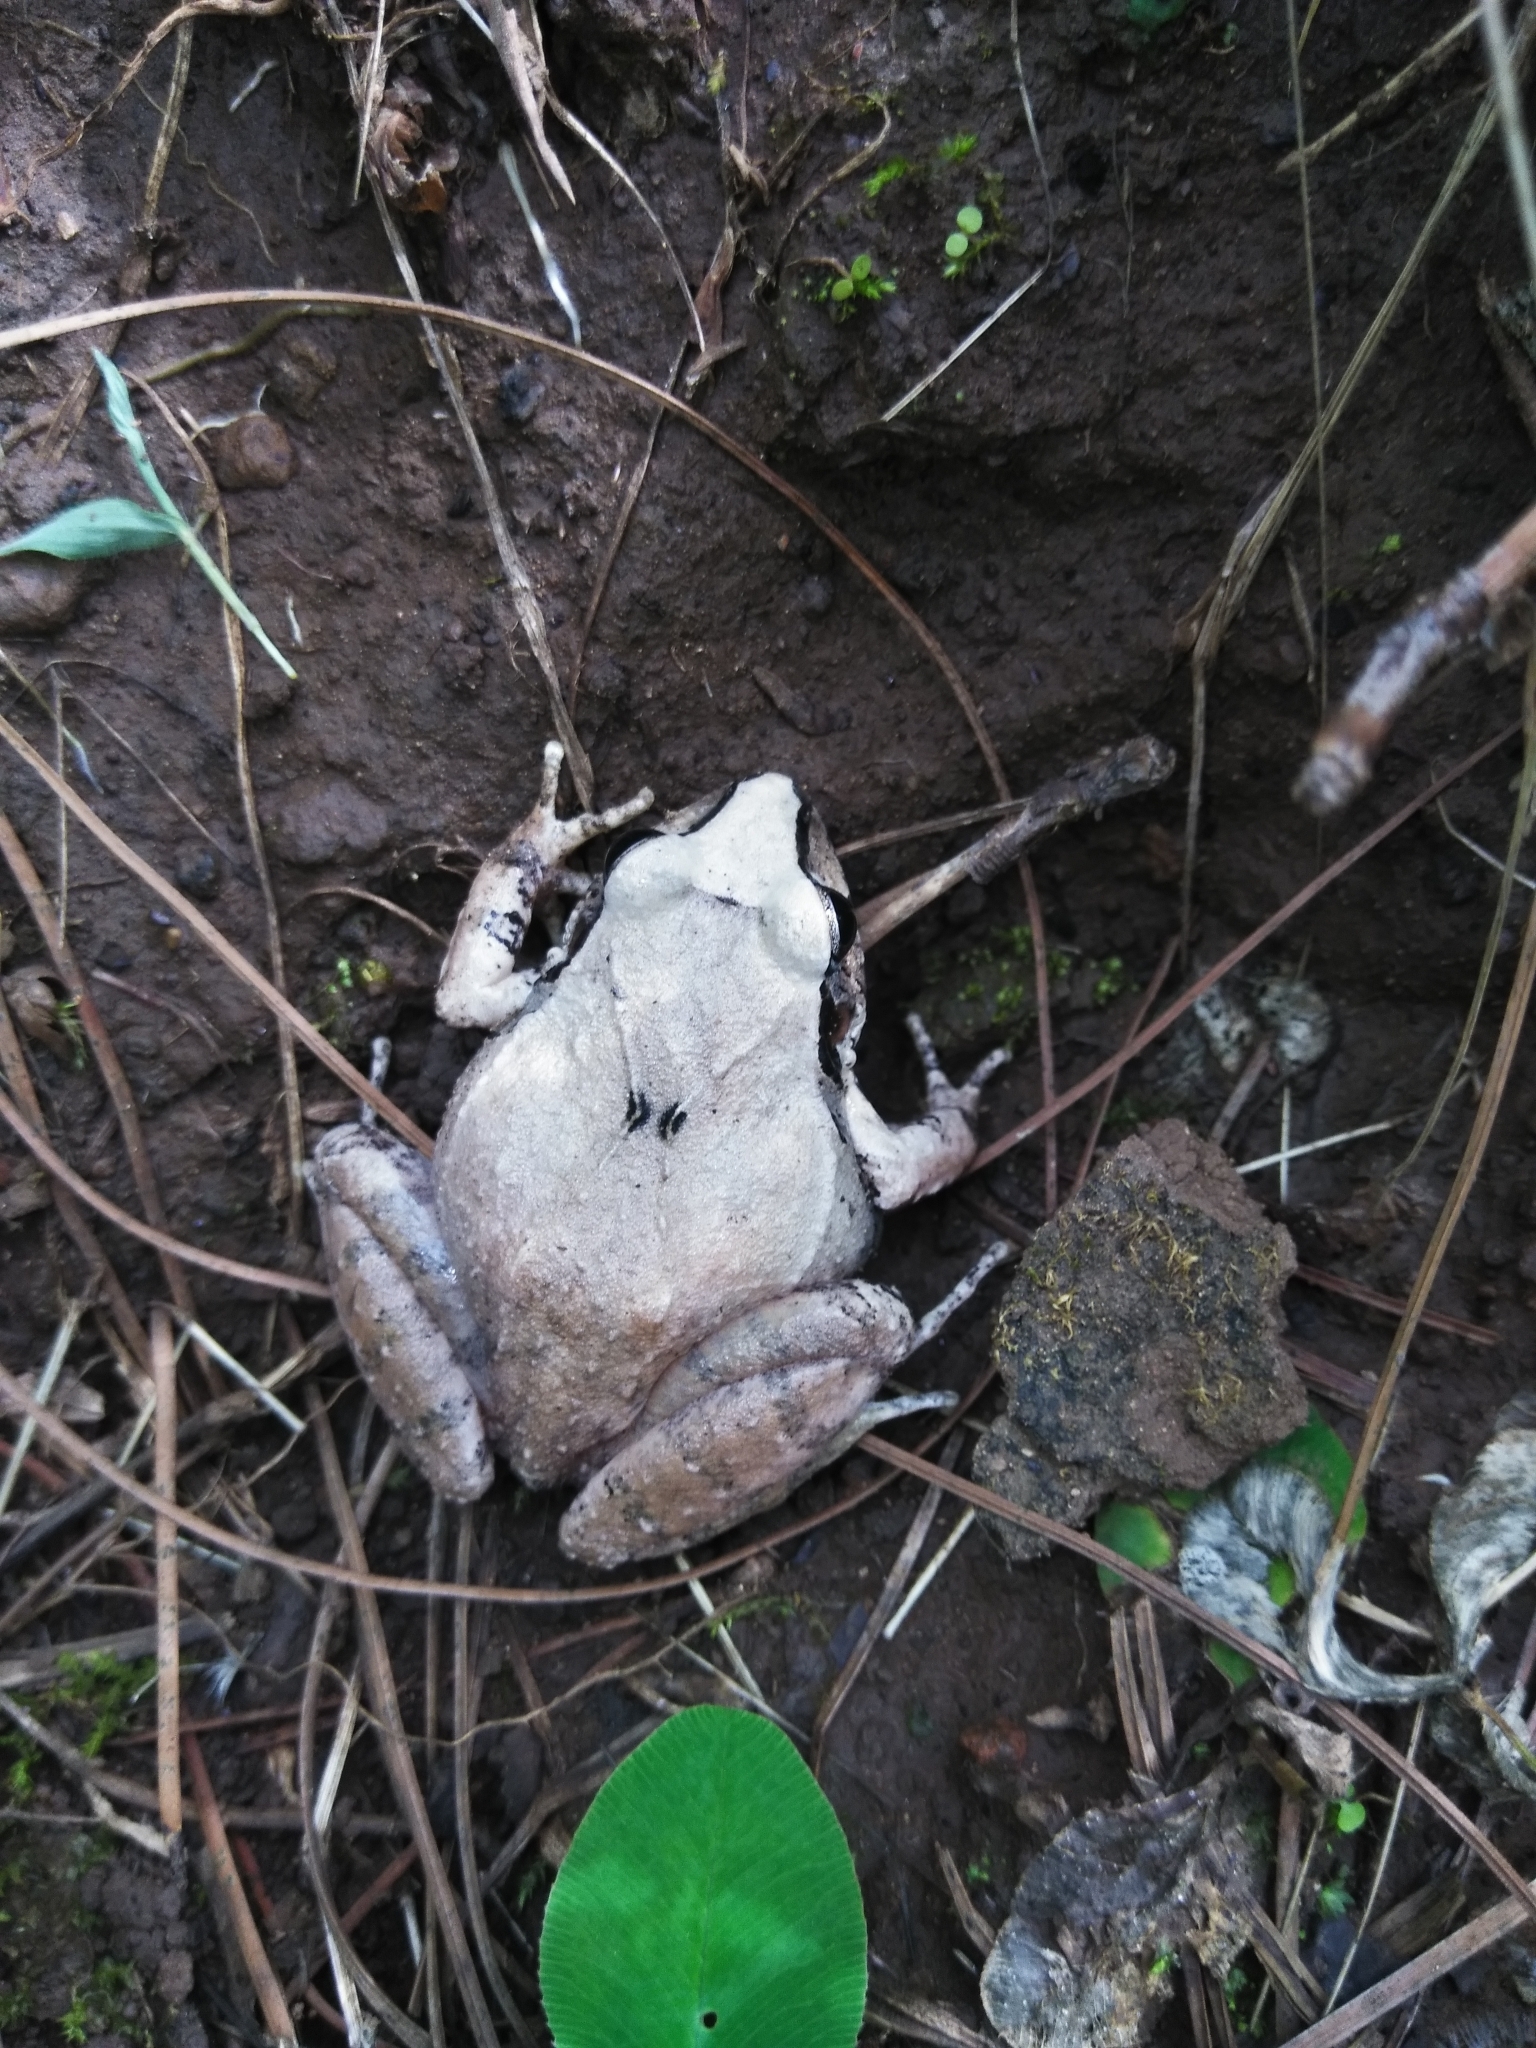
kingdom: Animalia
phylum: Chordata
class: Amphibia
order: Anura
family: Craugastoridae
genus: Craugastor
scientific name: Craugastor occidentalis
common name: Taylor's barking frog
